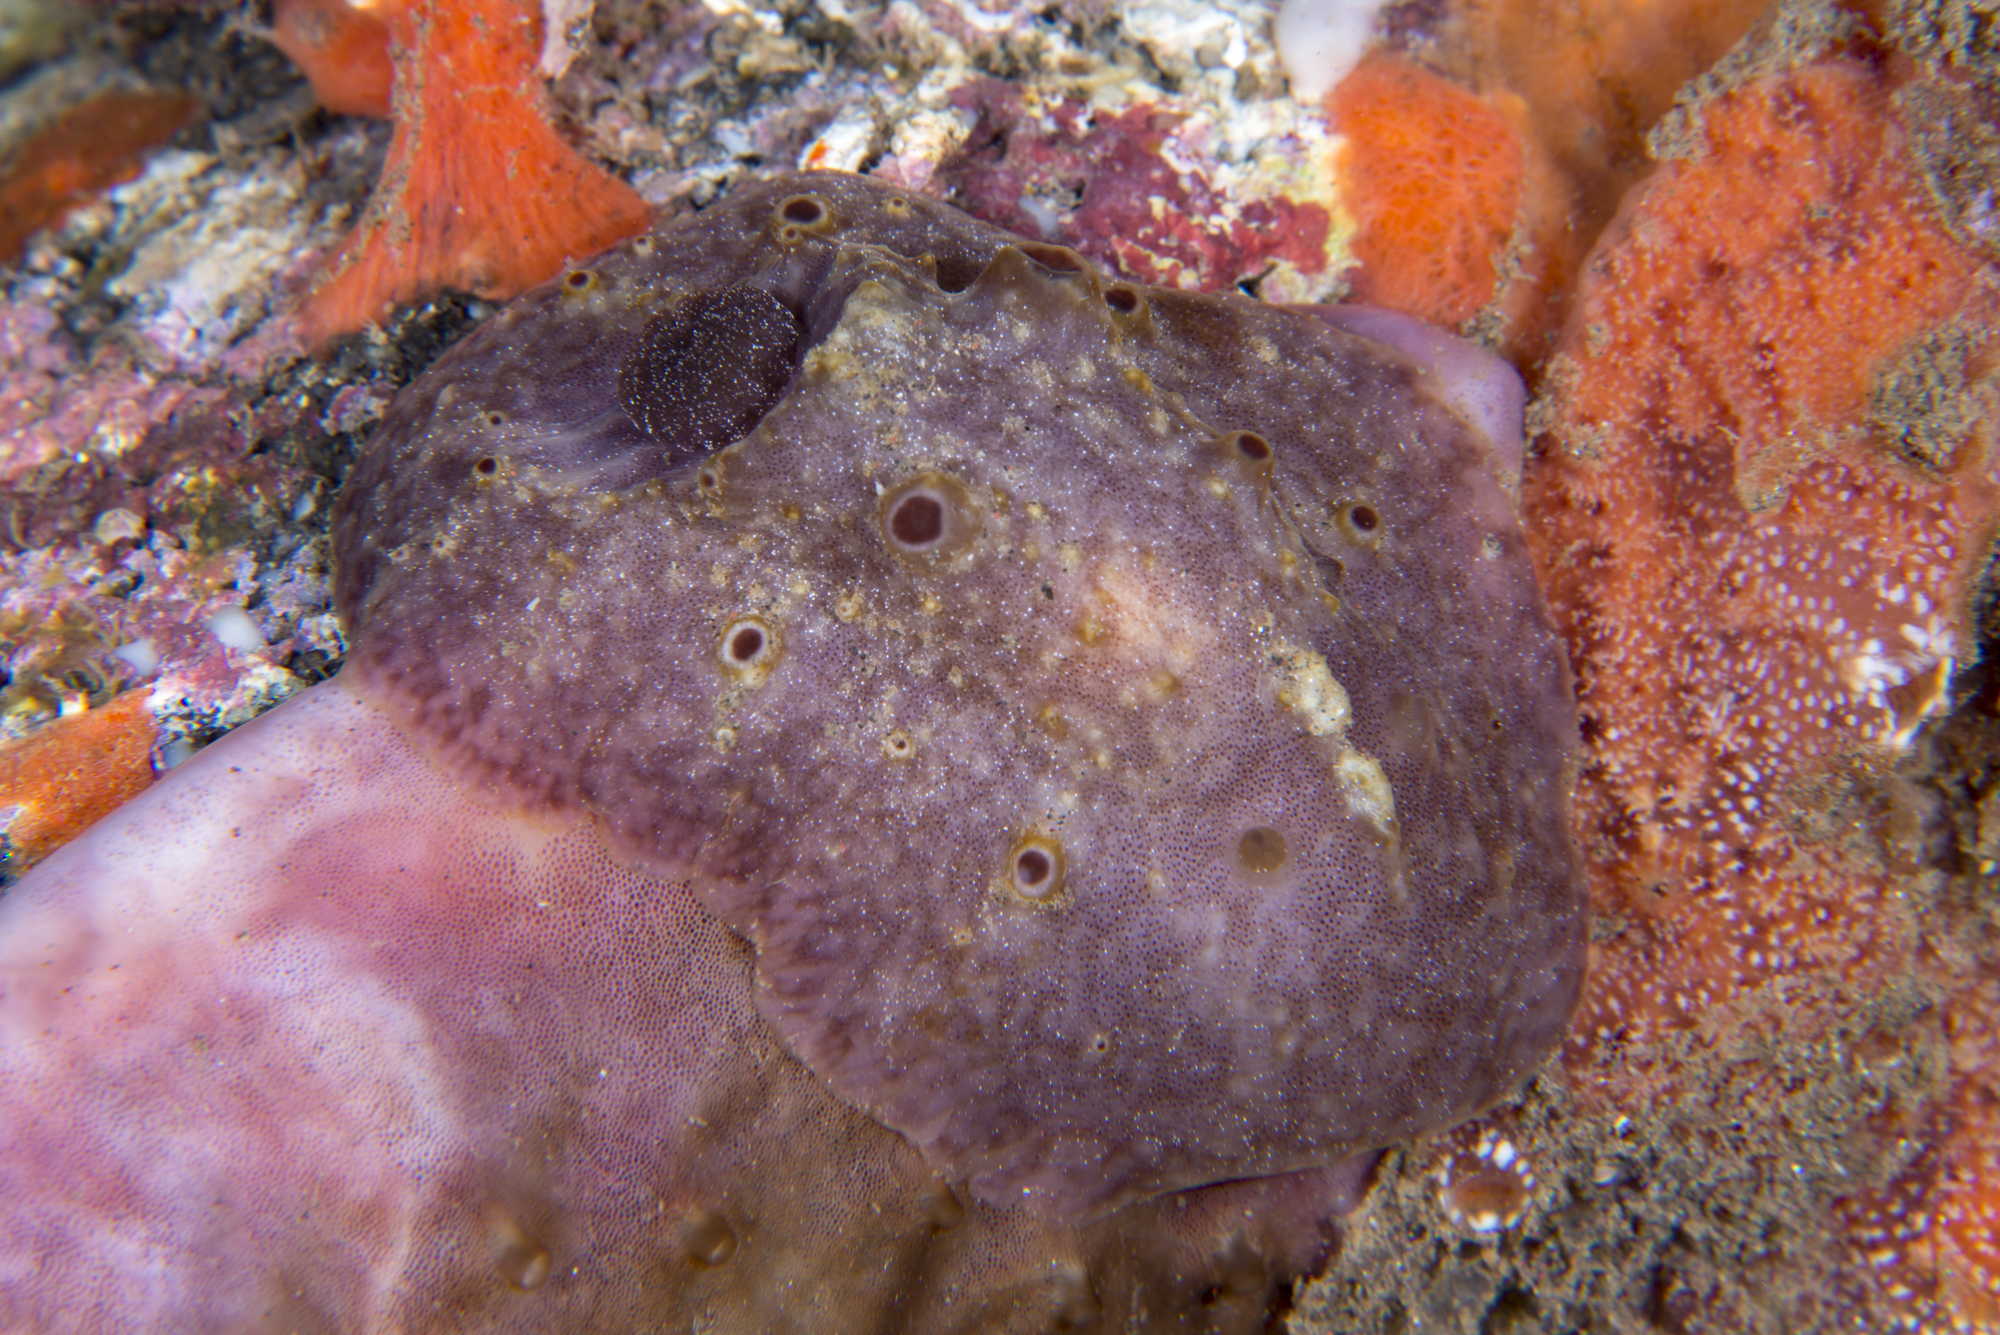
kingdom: Animalia
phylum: Mollusca
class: Gastropoda
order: Nudibranchia
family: Actinocyclidae
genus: Actinocyclus
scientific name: Actinocyclus verrucosus
